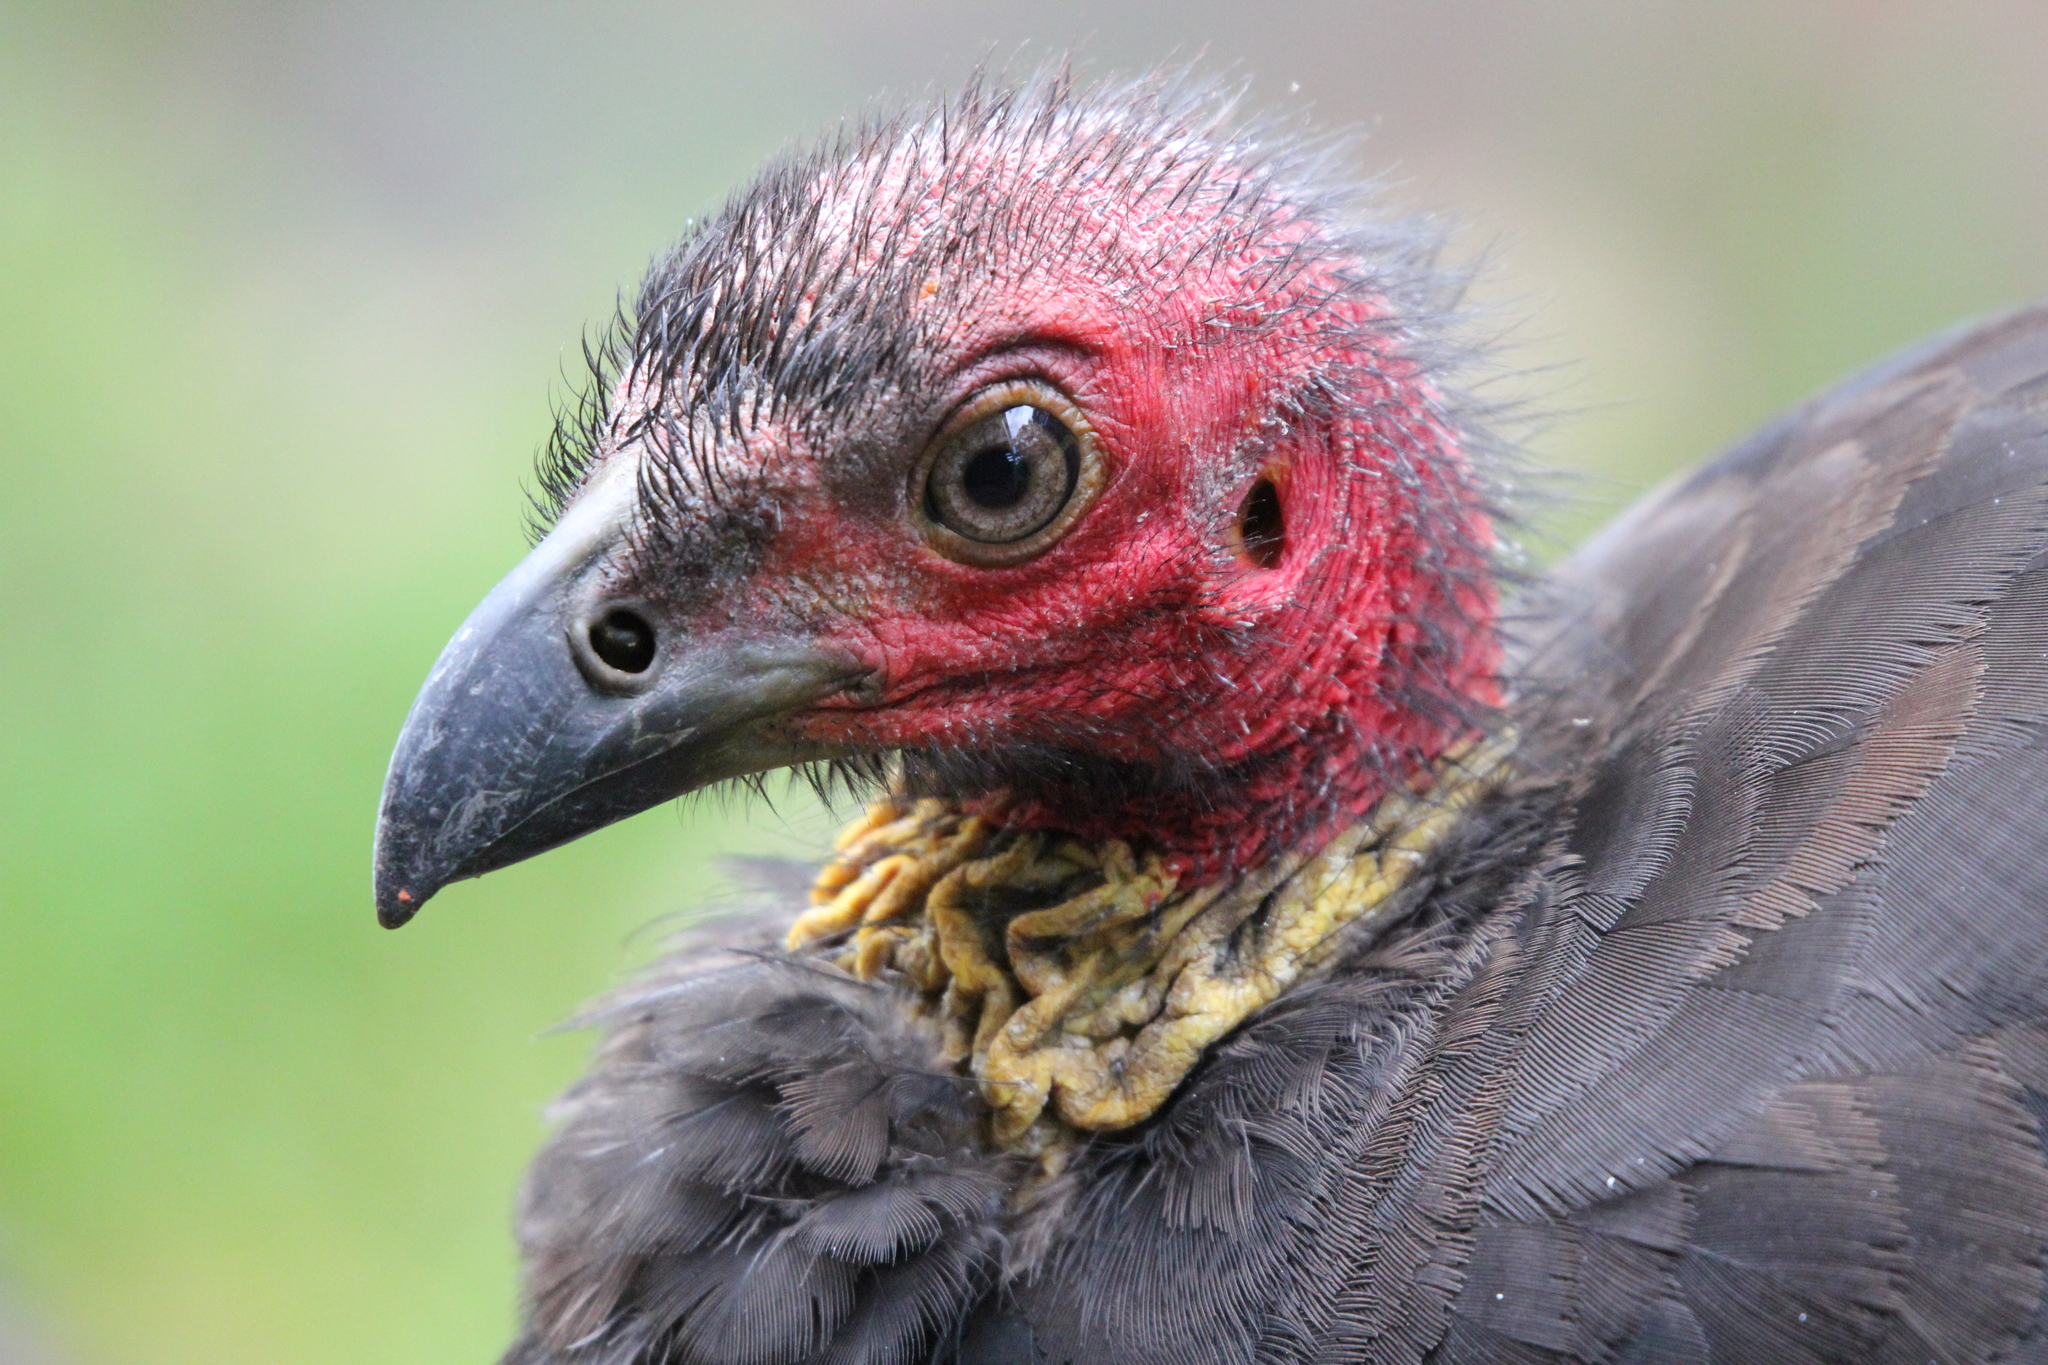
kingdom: Animalia
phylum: Chordata
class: Aves
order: Galliformes
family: Megapodiidae
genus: Alectura
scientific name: Alectura lathami
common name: Australian brushturkey
